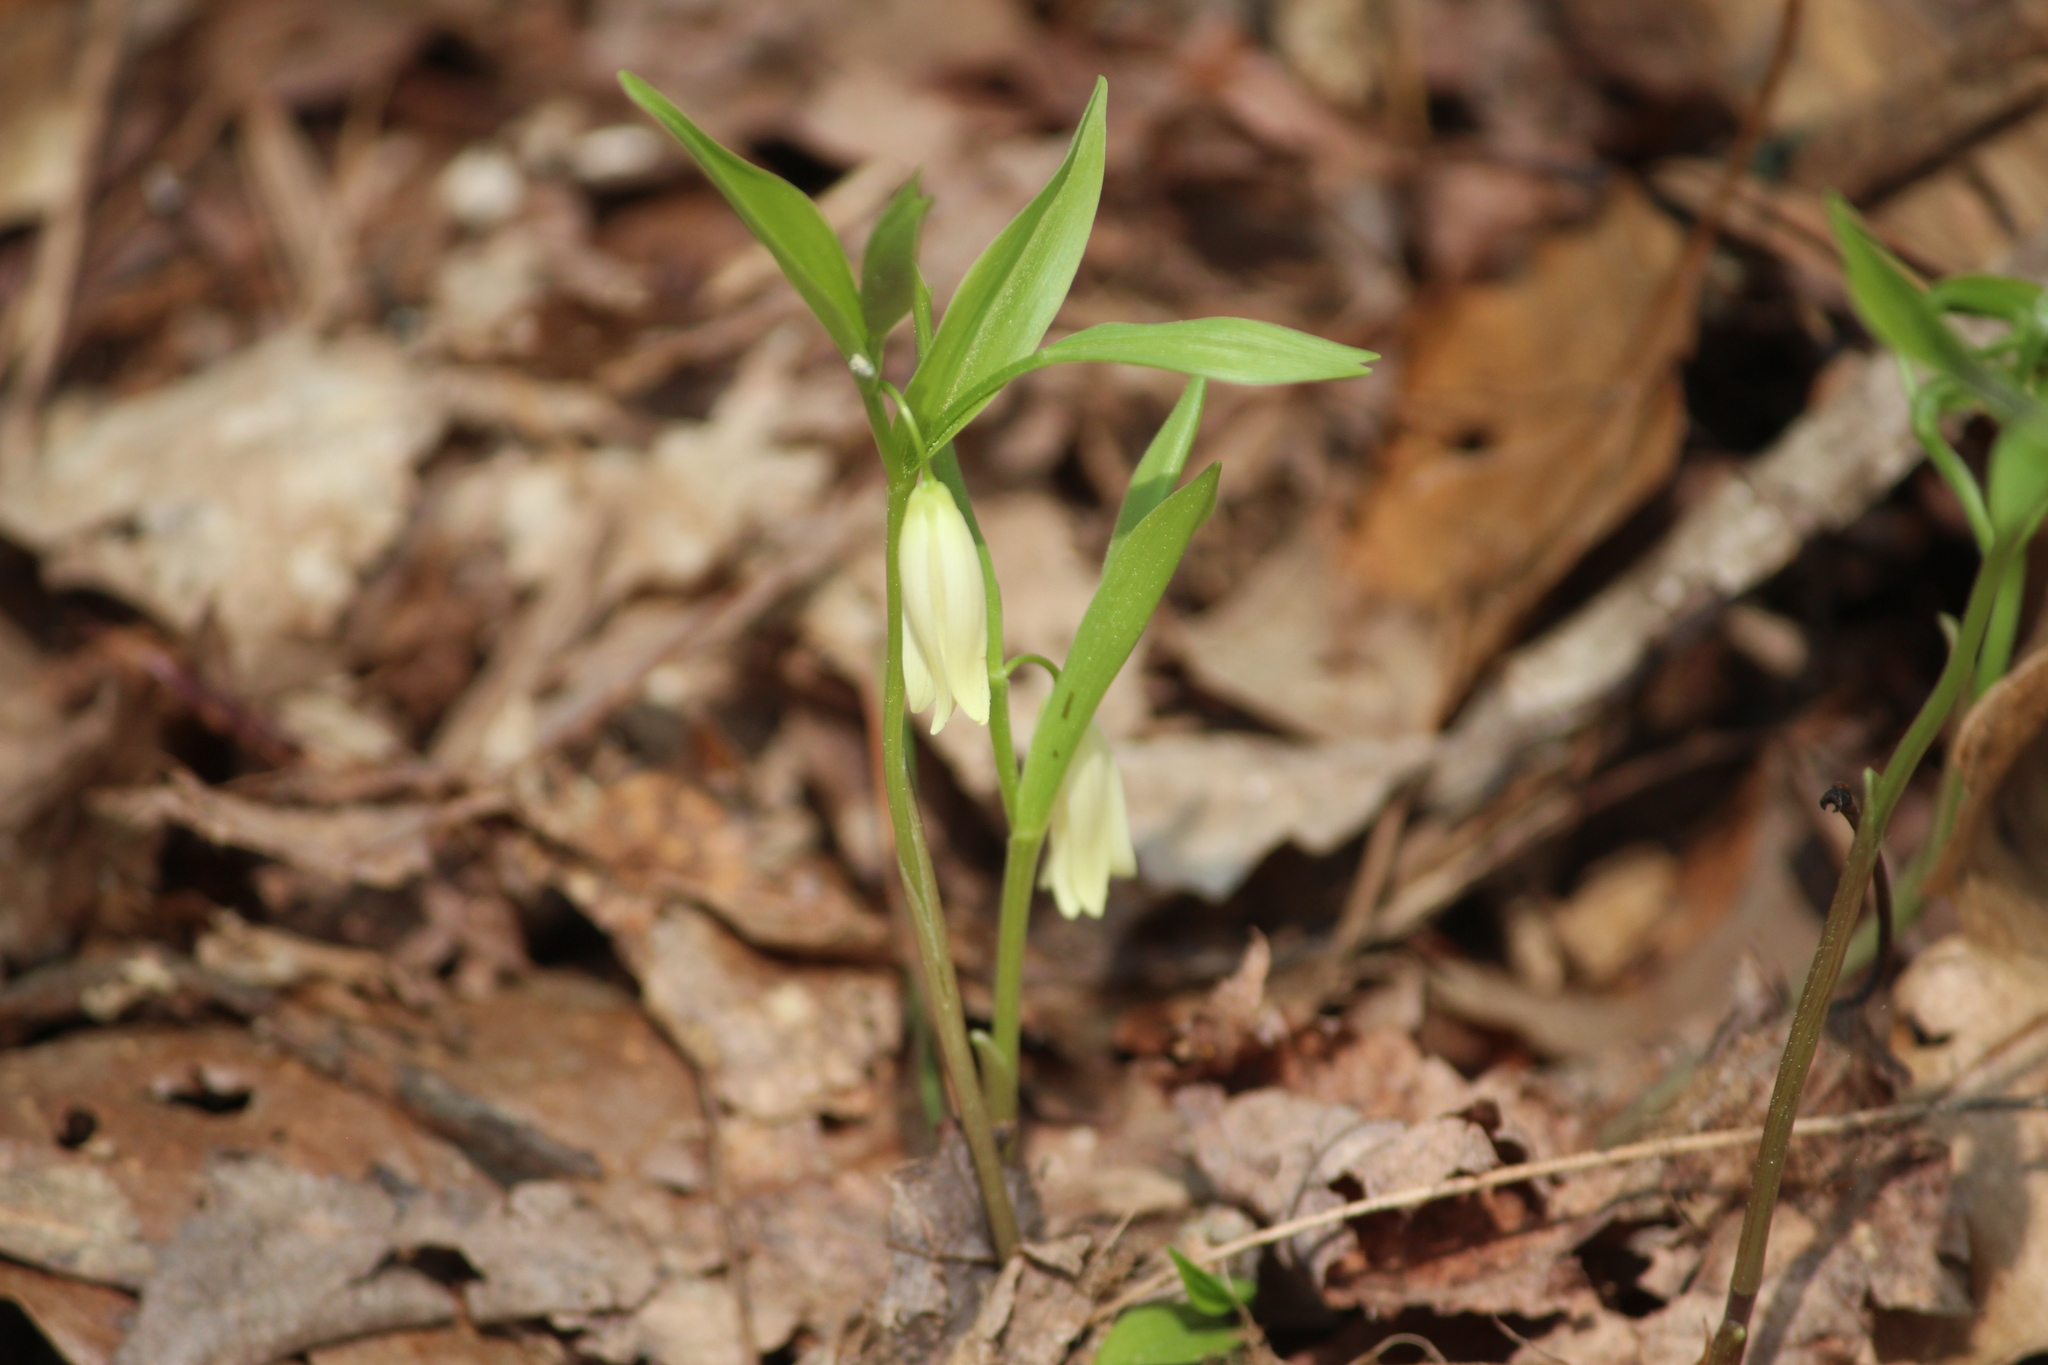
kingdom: Plantae
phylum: Tracheophyta
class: Liliopsida
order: Liliales
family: Colchicaceae
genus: Uvularia
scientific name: Uvularia puberula
